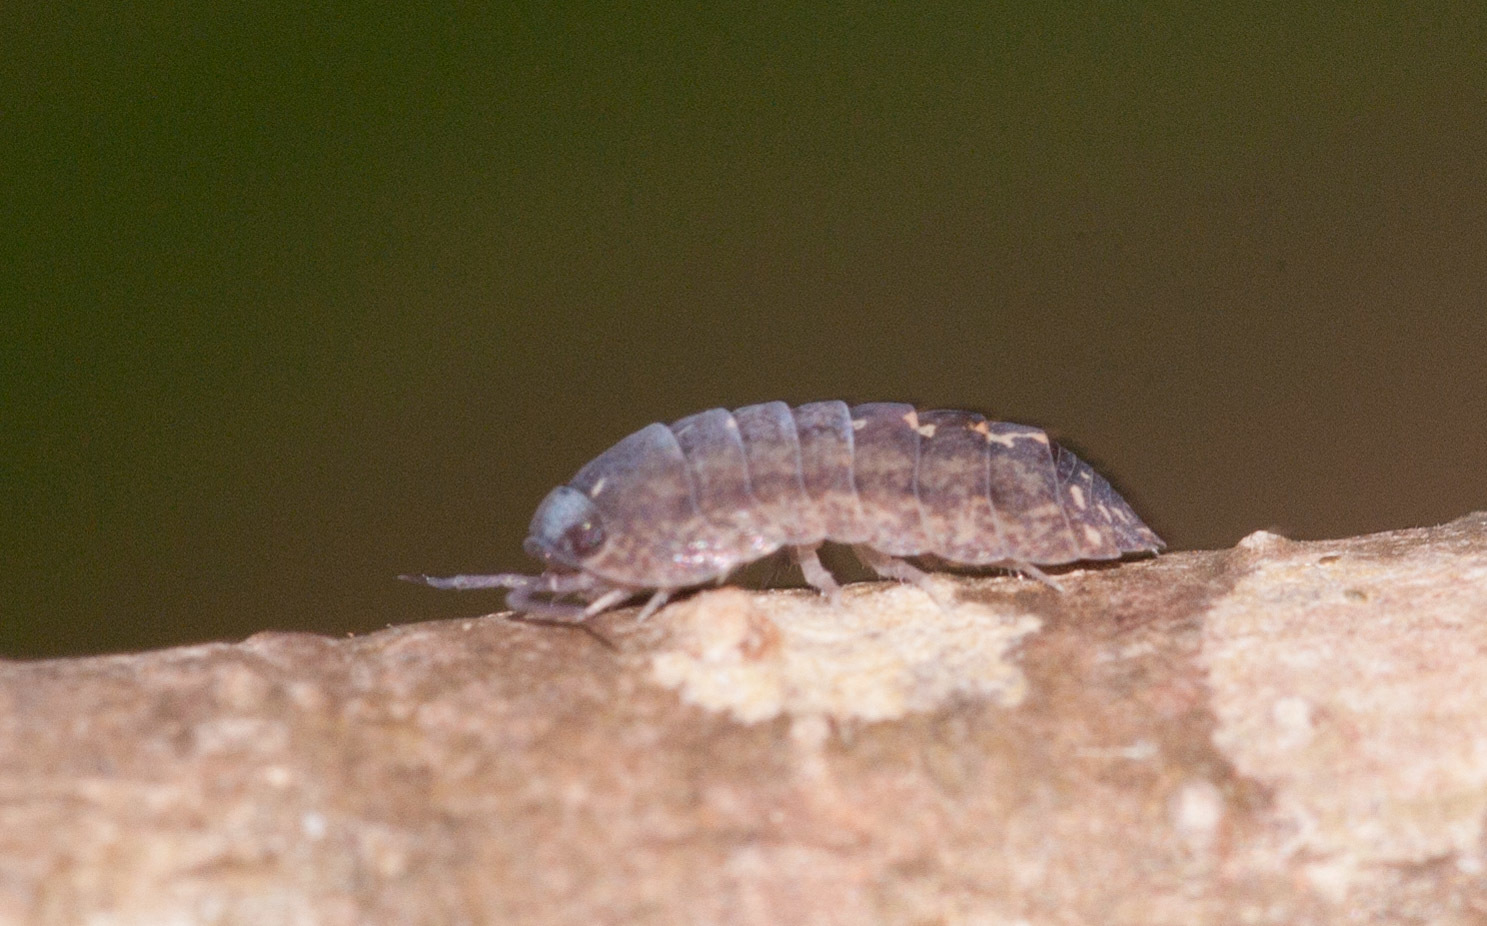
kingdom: Animalia
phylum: Arthropoda
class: Malacostraca
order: Isopoda
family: Armadillidae
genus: Cubaris
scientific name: Cubaris marmorata
